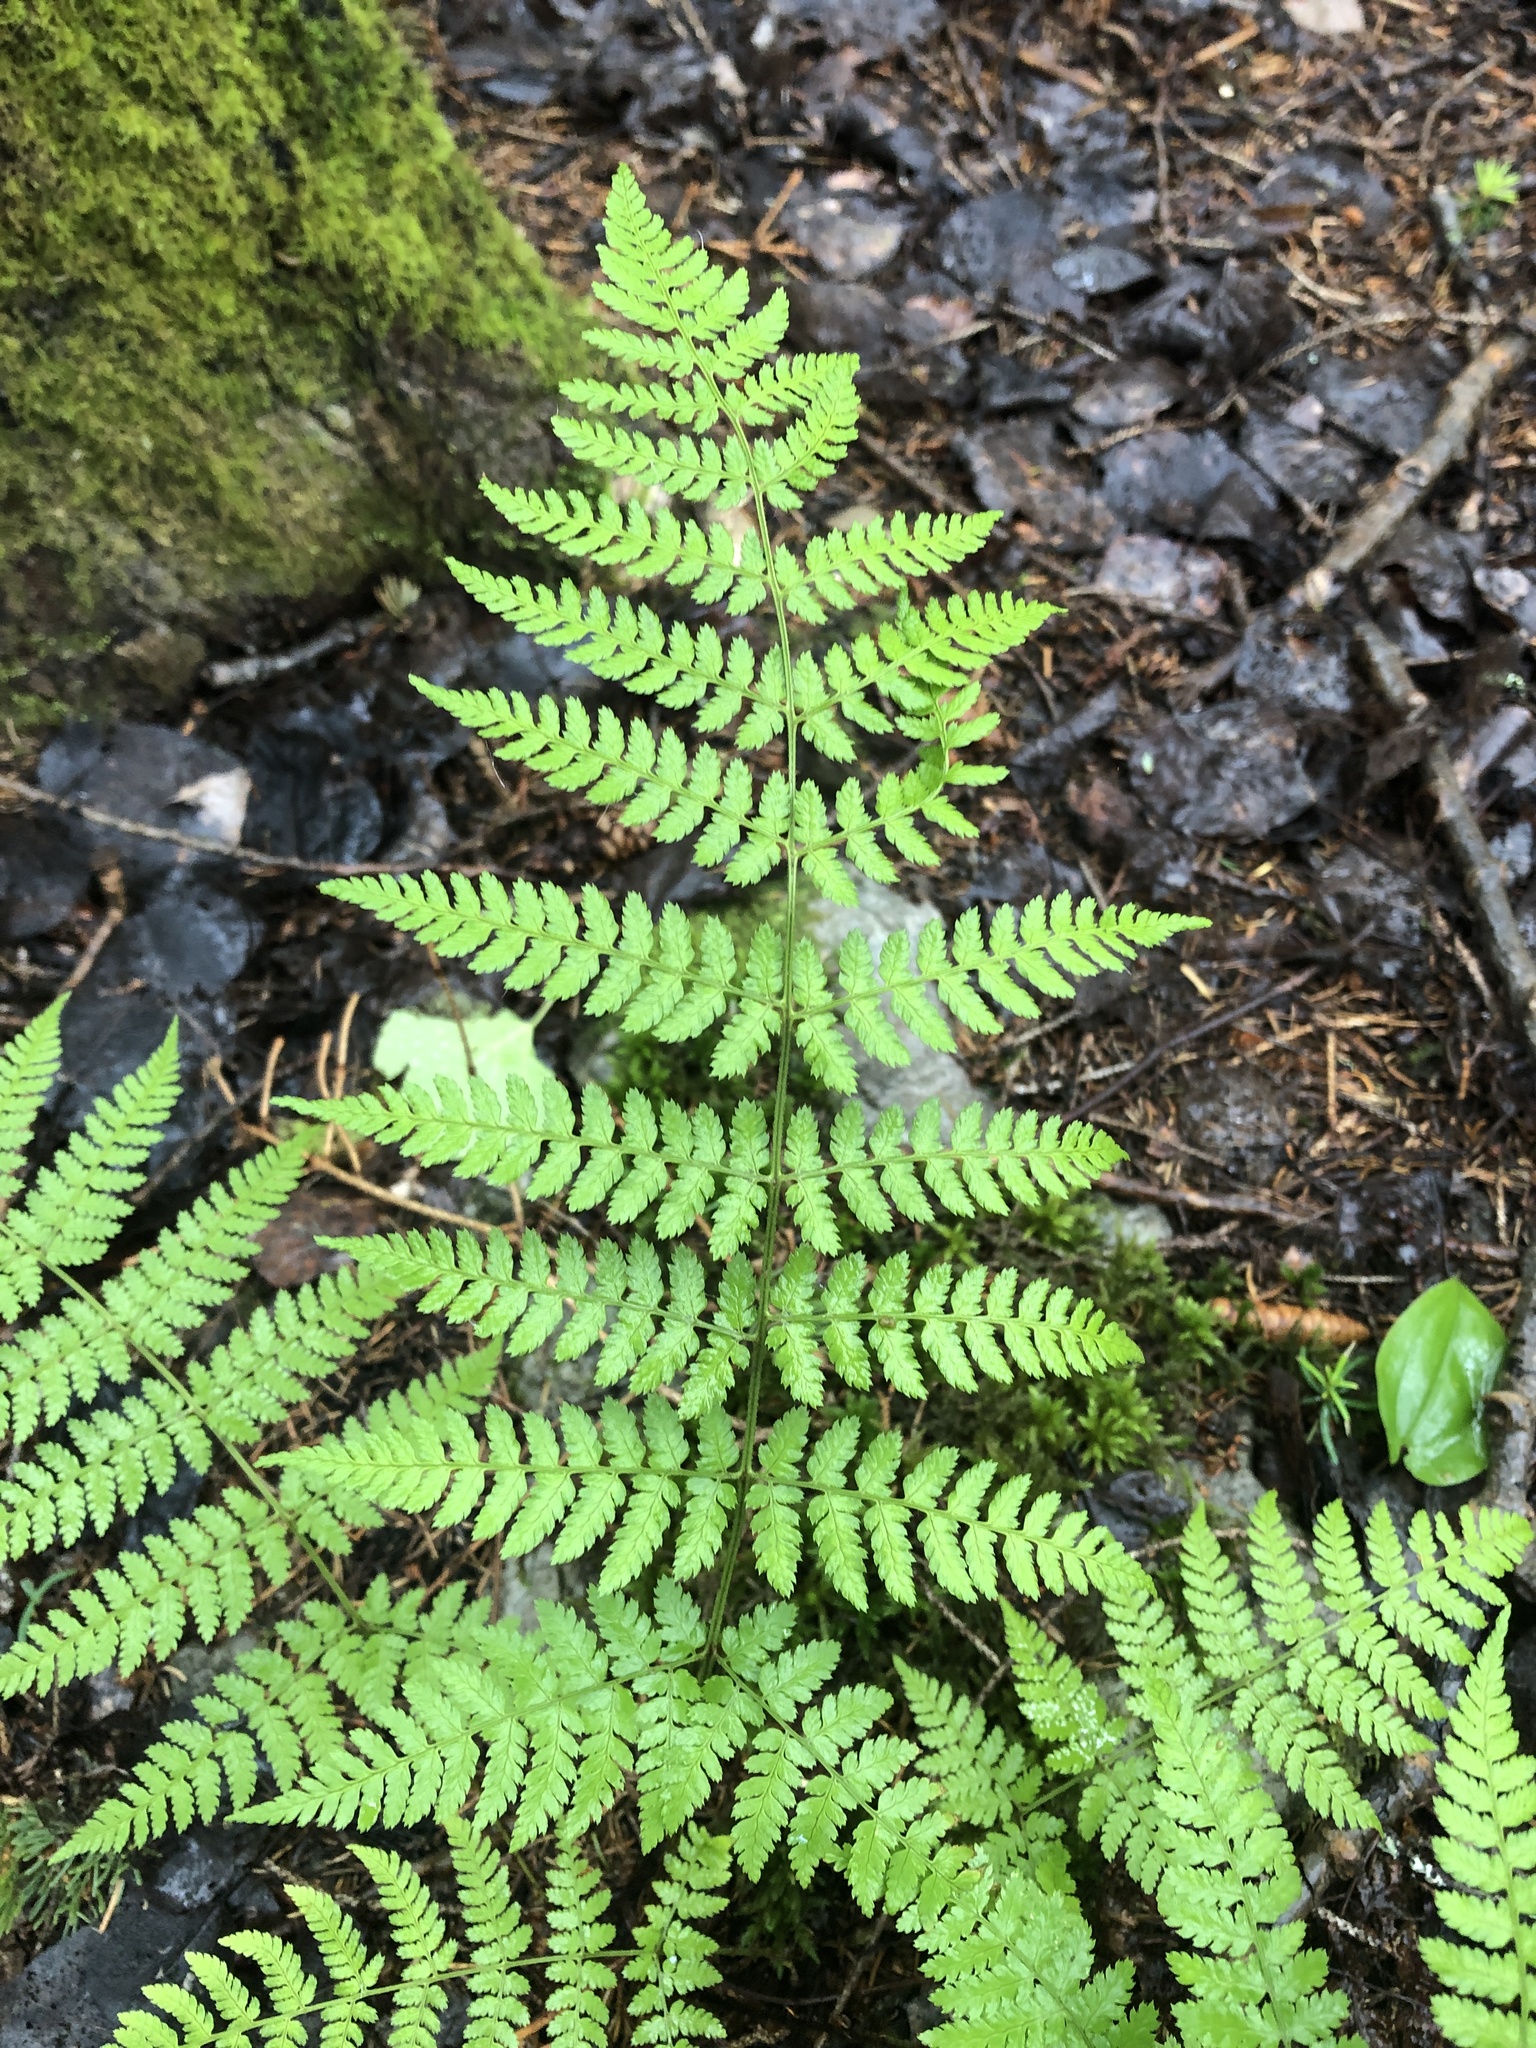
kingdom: Plantae
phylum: Tracheophyta
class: Polypodiopsida
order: Polypodiales
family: Dryopteridaceae
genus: Dryopteris
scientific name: Dryopteris intermedia
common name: Evergreen wood fern
